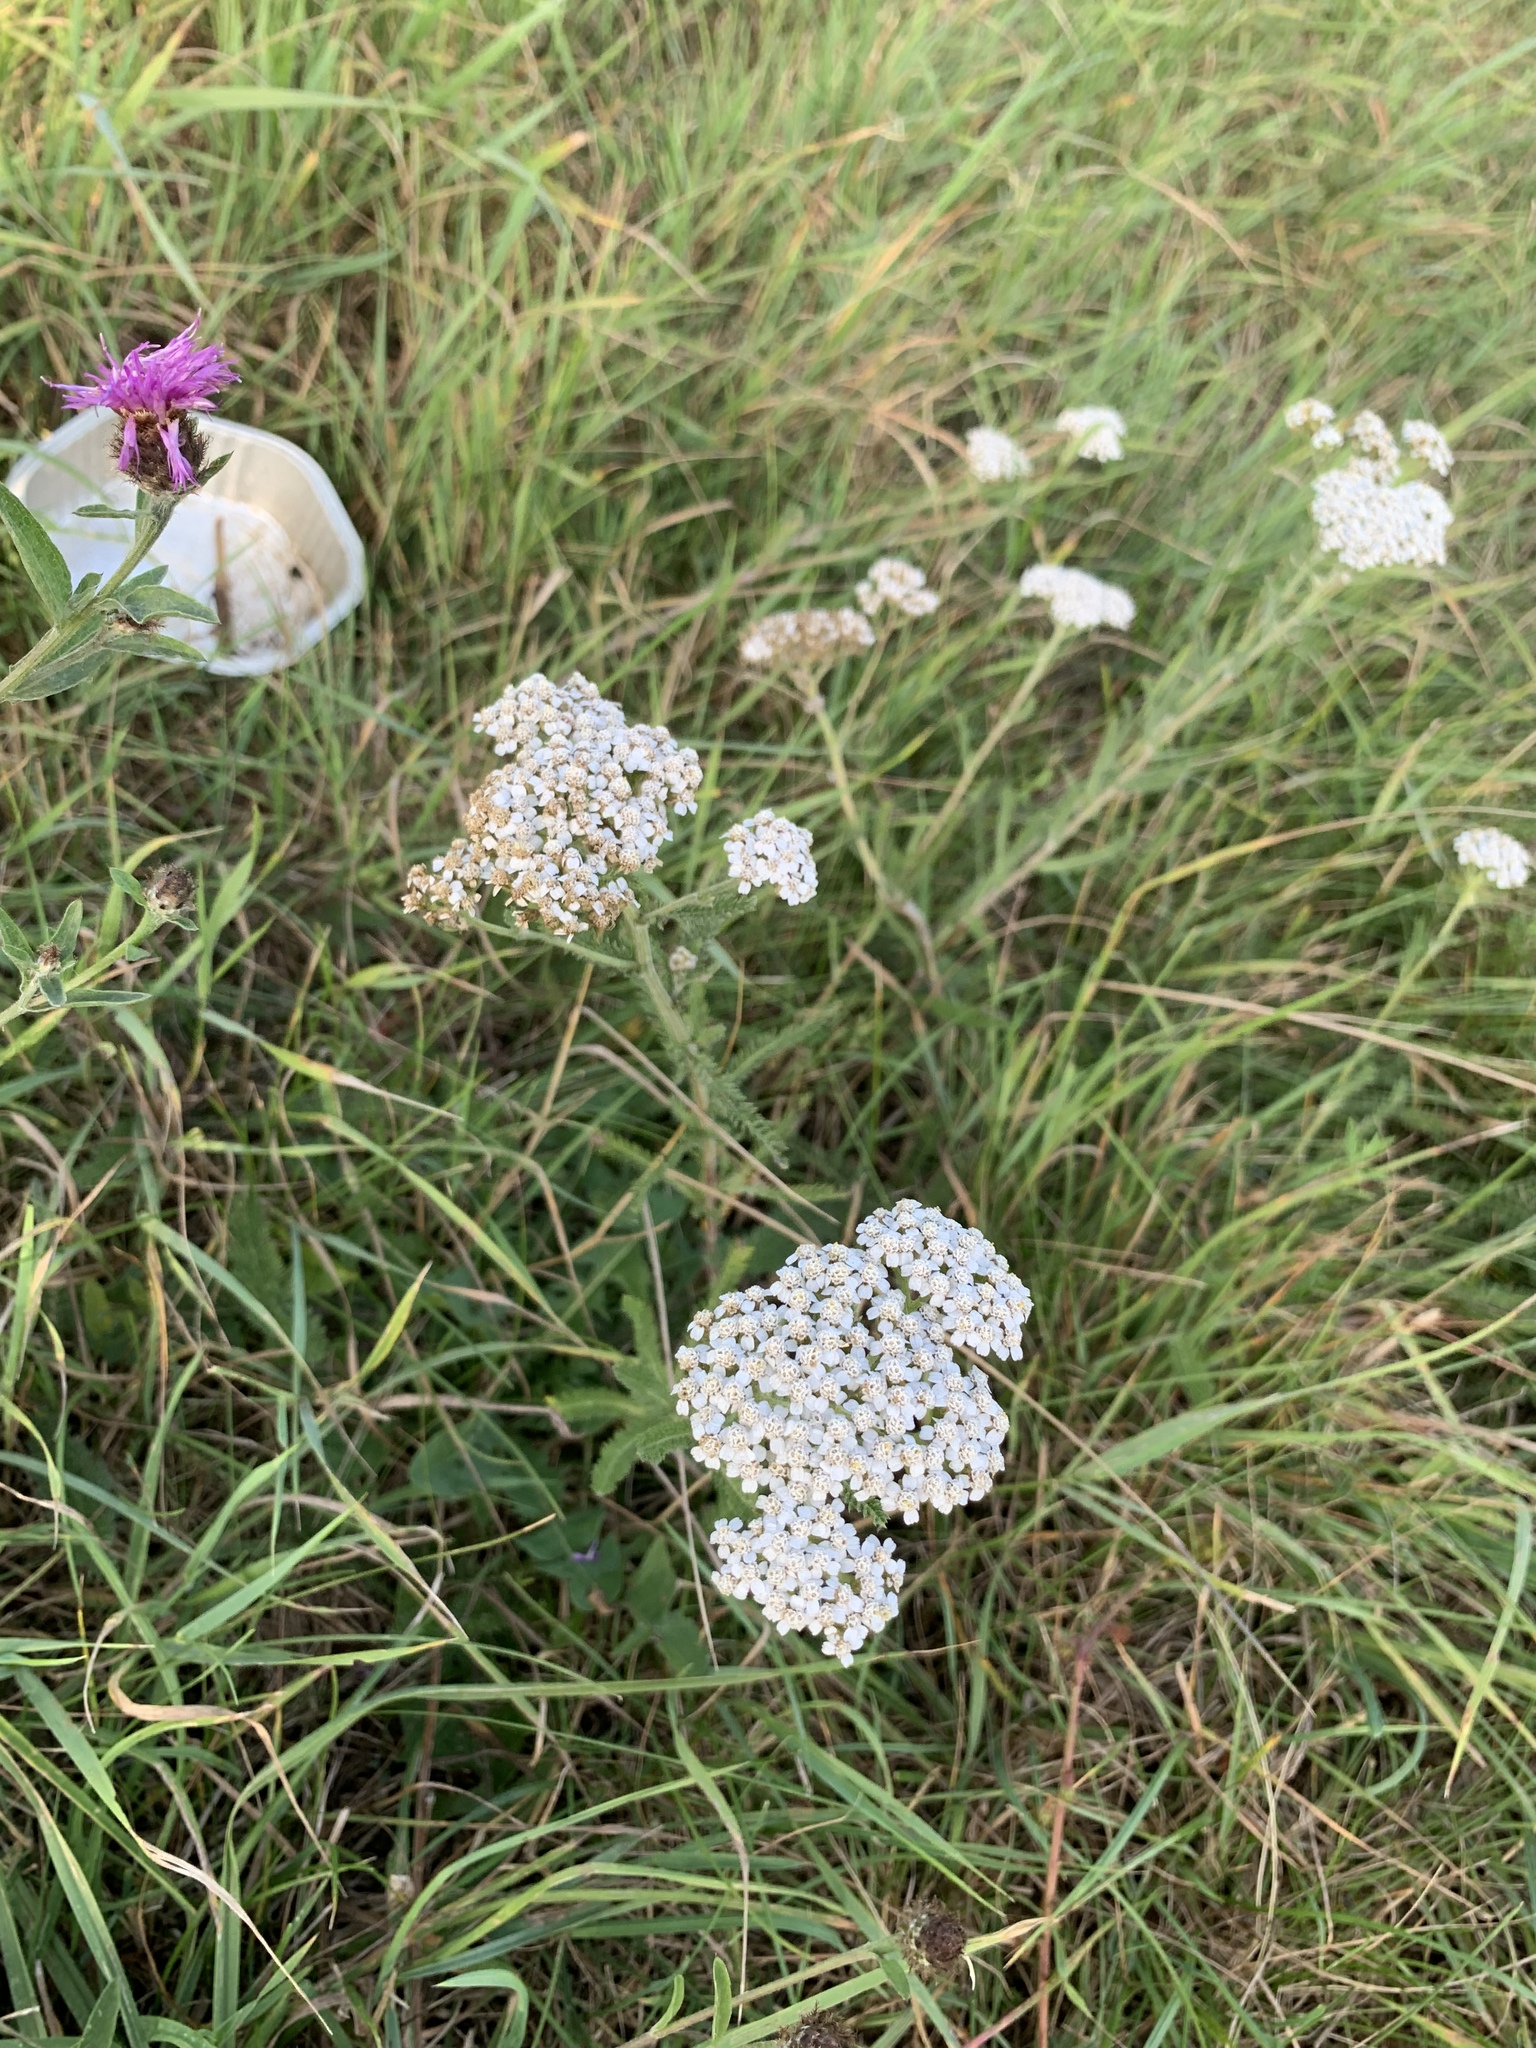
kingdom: Plantae
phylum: Tracheophyta
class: Magnoliopsida
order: Asterales
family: Asteraceae
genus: Achillea
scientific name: Achillea millefolium
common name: Yarrow
